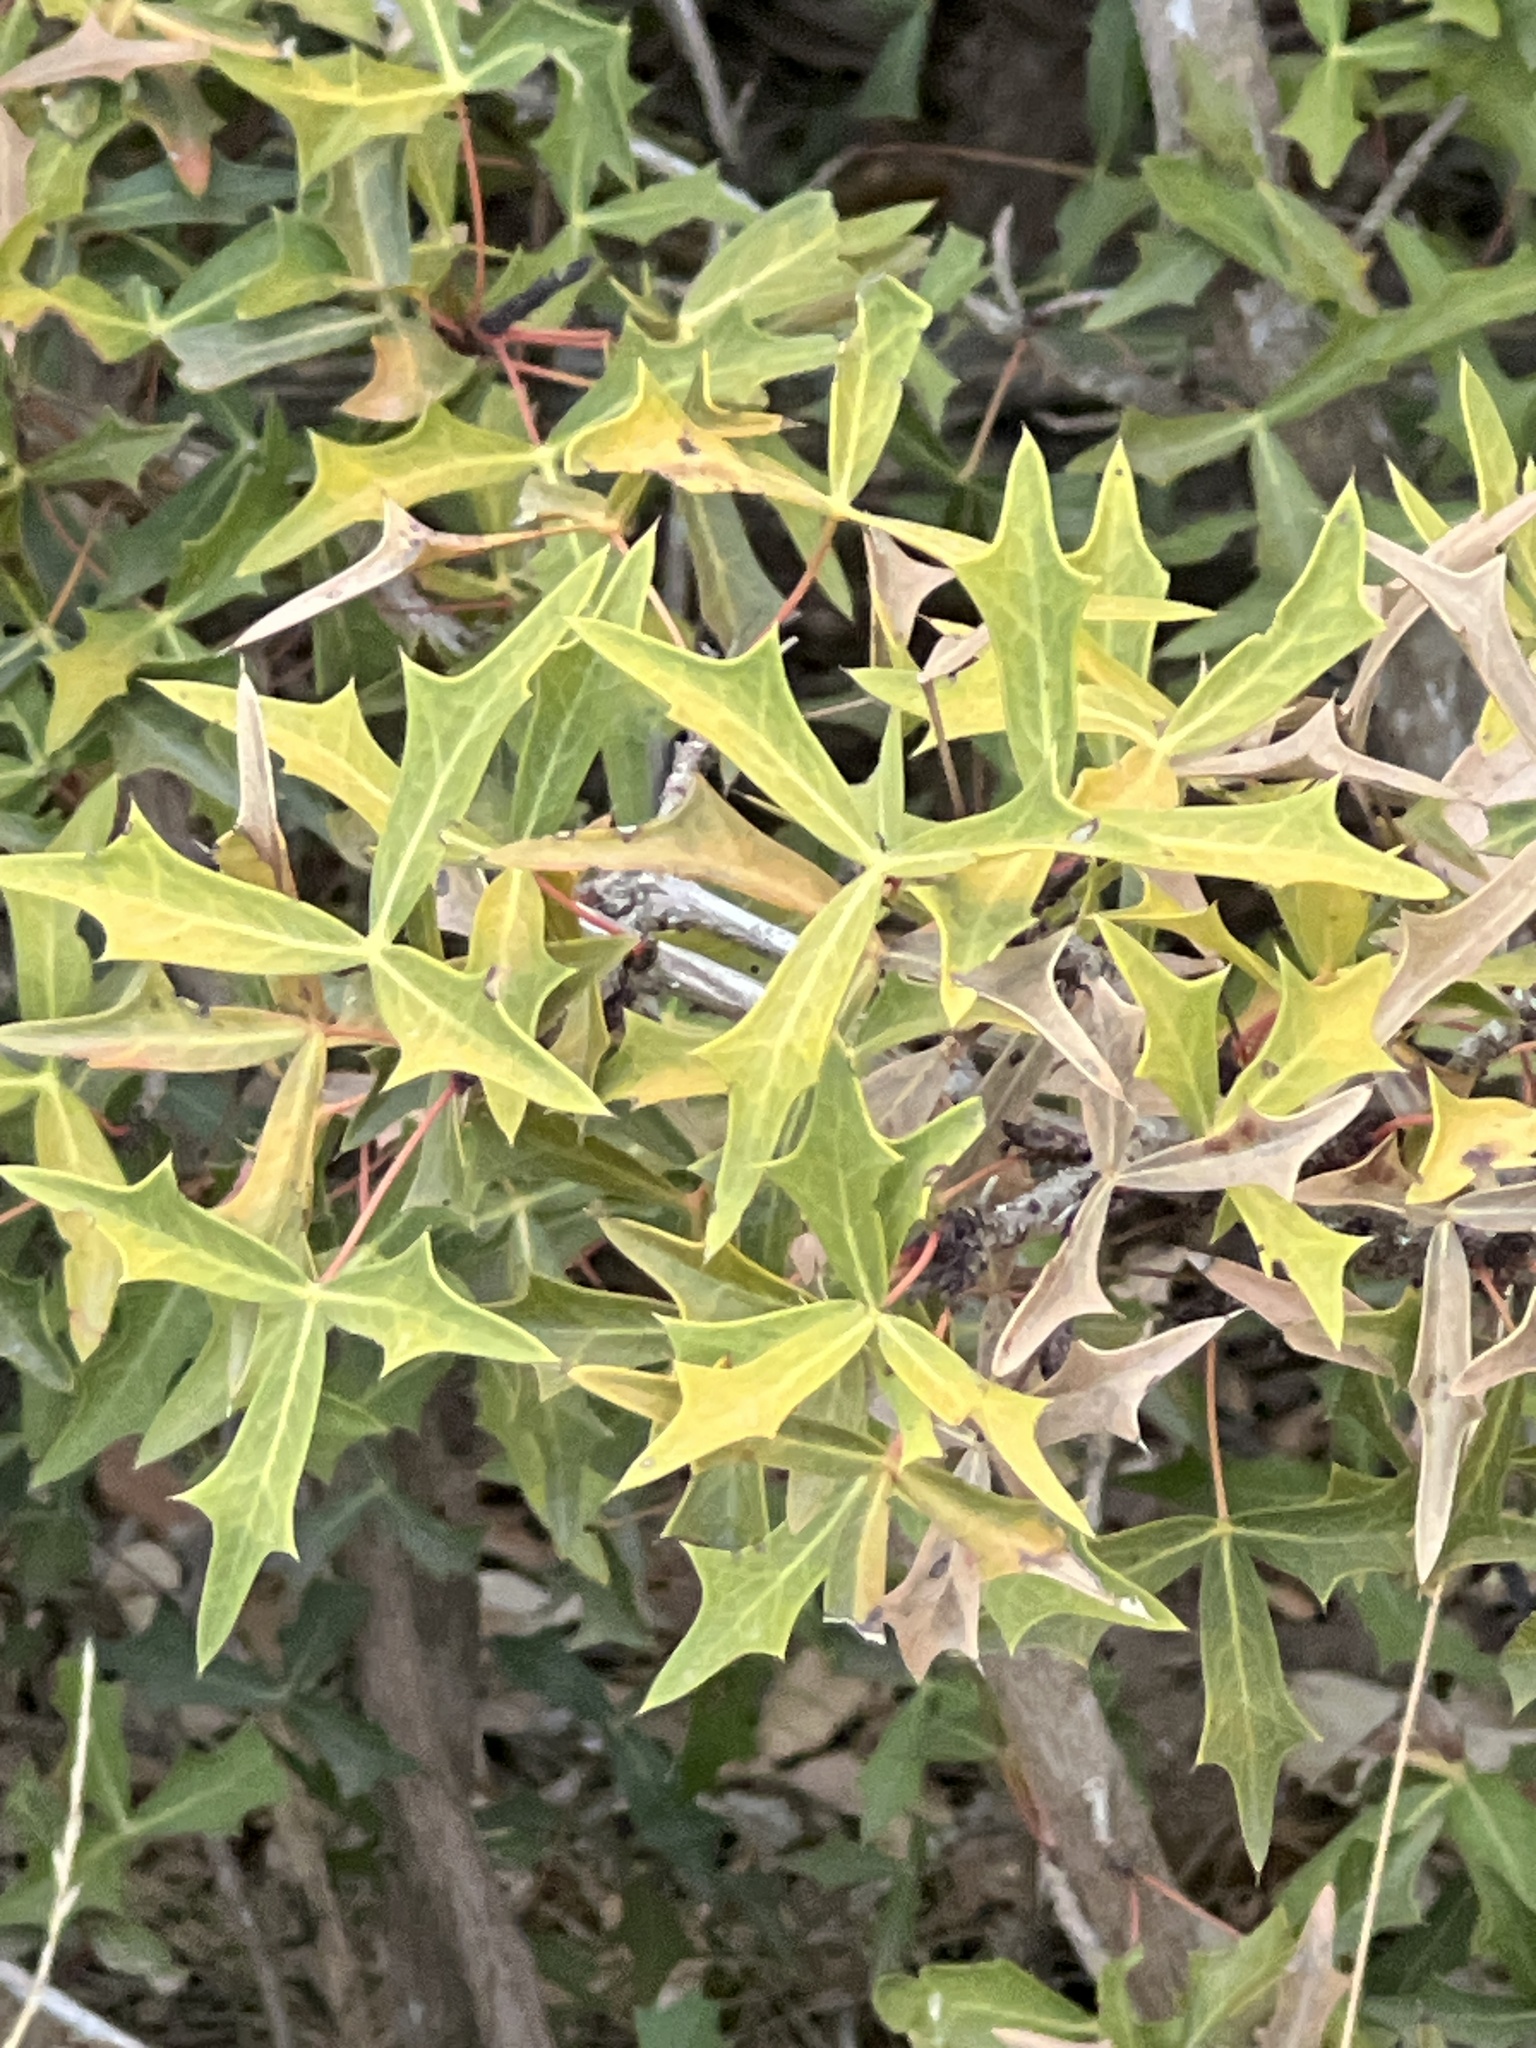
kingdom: Plantae
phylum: Tracheophyta
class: Magnoliopsida
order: Ranunculales
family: Berberidaceae
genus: Alloberberis
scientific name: Alloberberis trifoliolata
